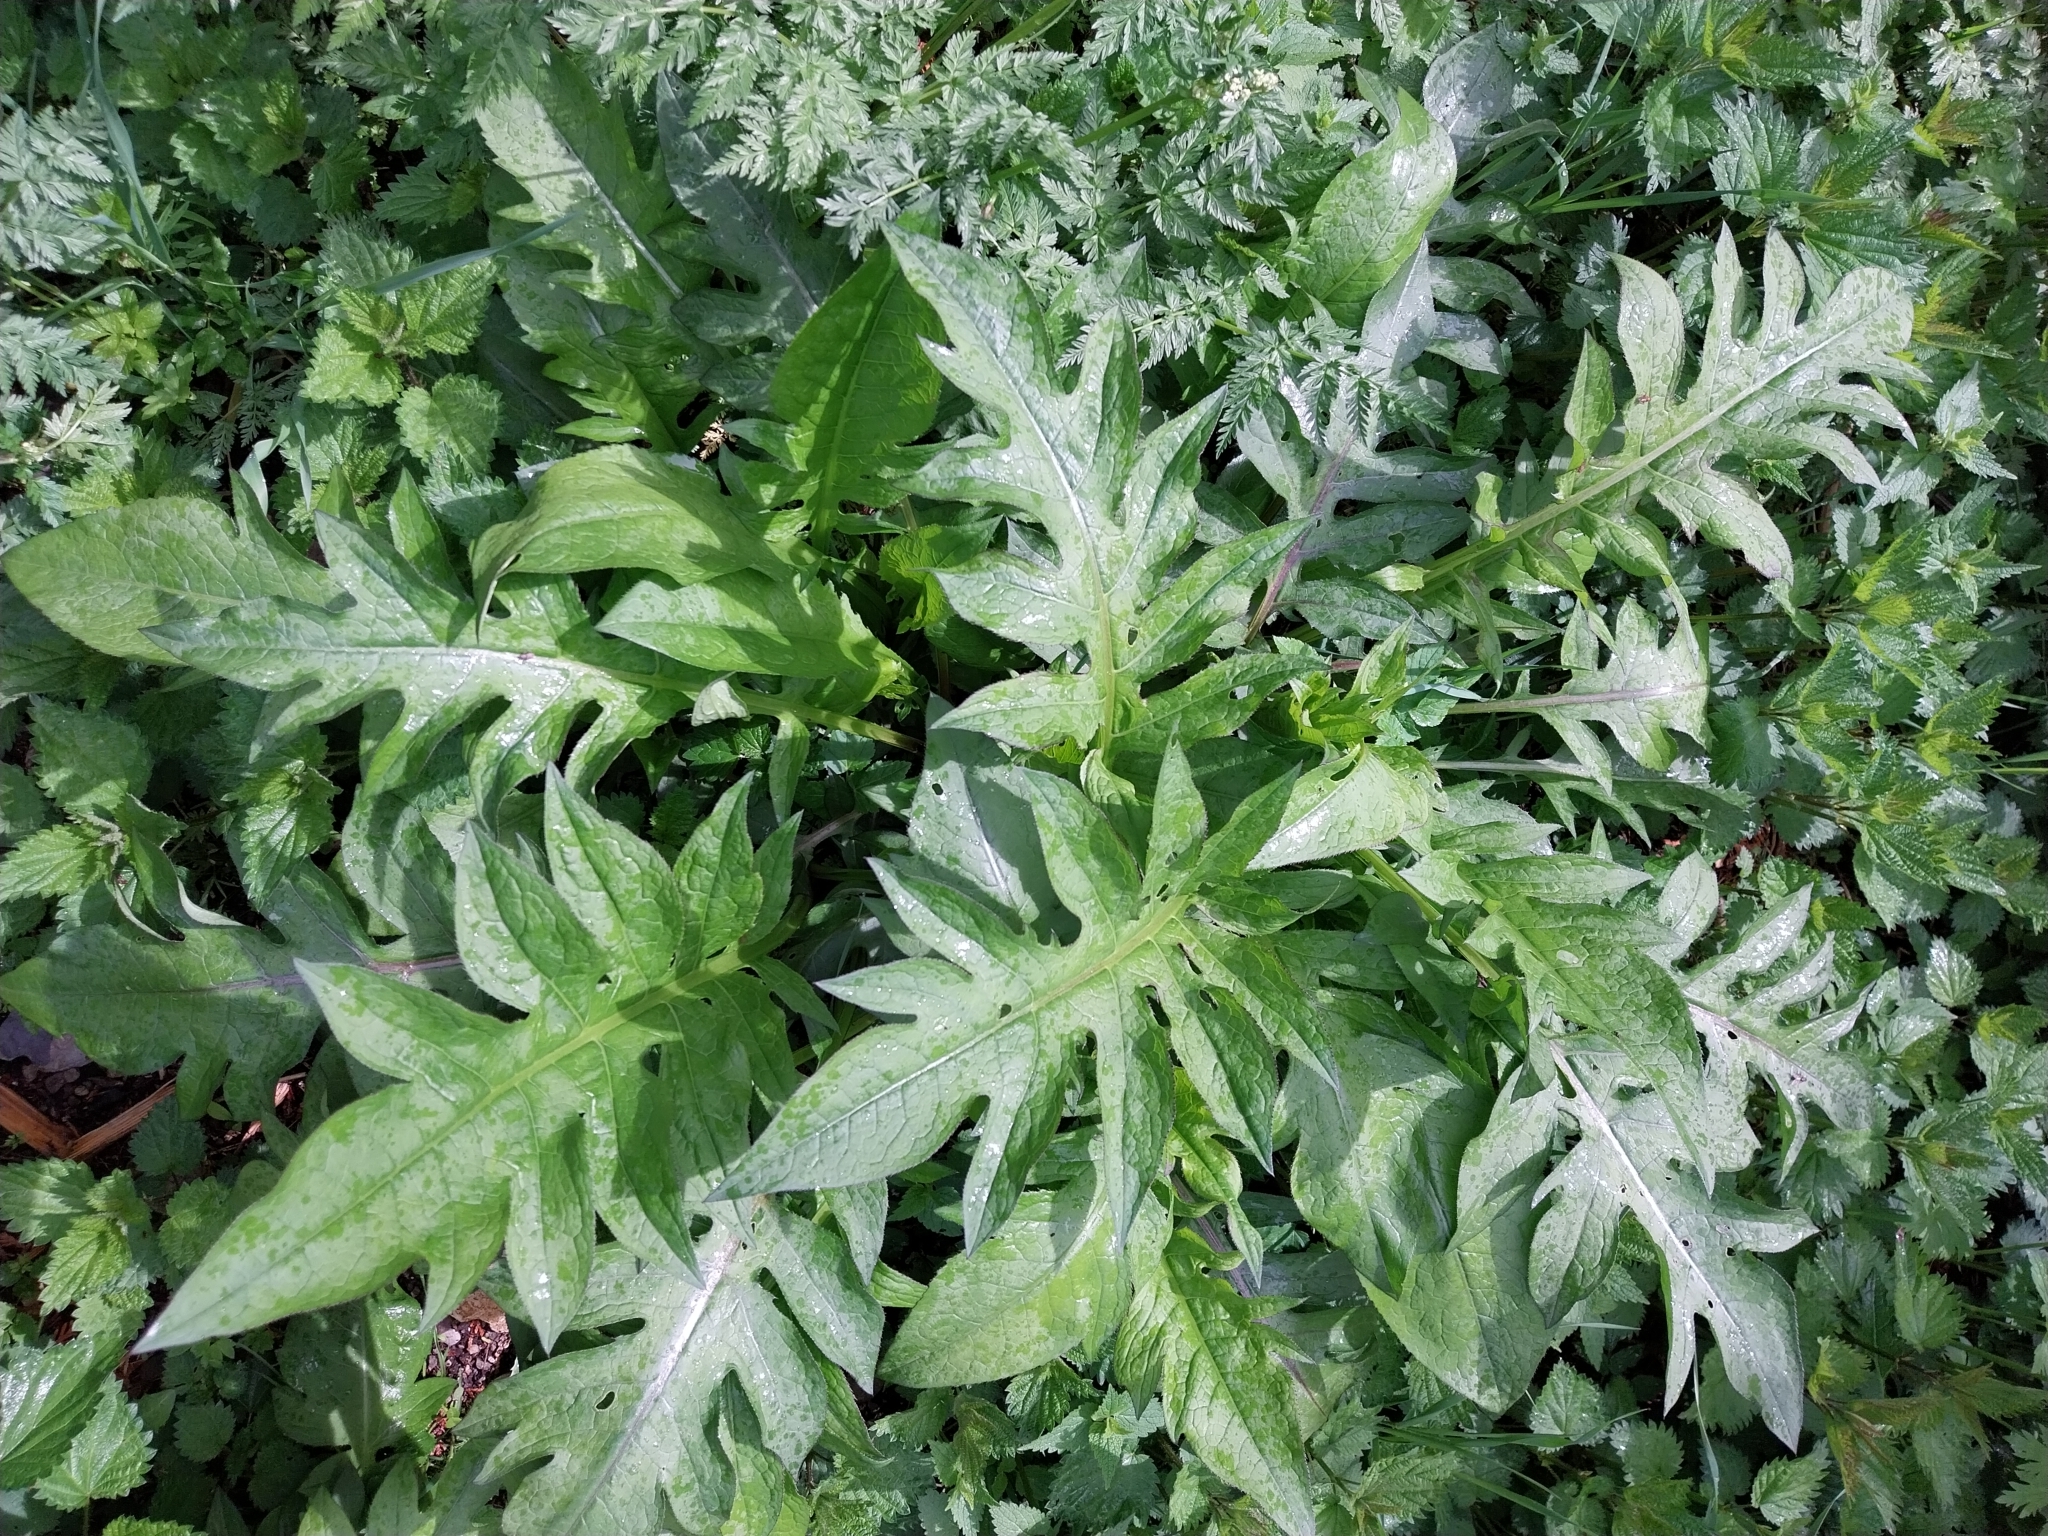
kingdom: Plantae
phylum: Tracheophyta
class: Magnoliopsida
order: Asterales
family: Asteraceae
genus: Cirsium
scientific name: Cirsium oleraceum
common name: Cabbage thistle
